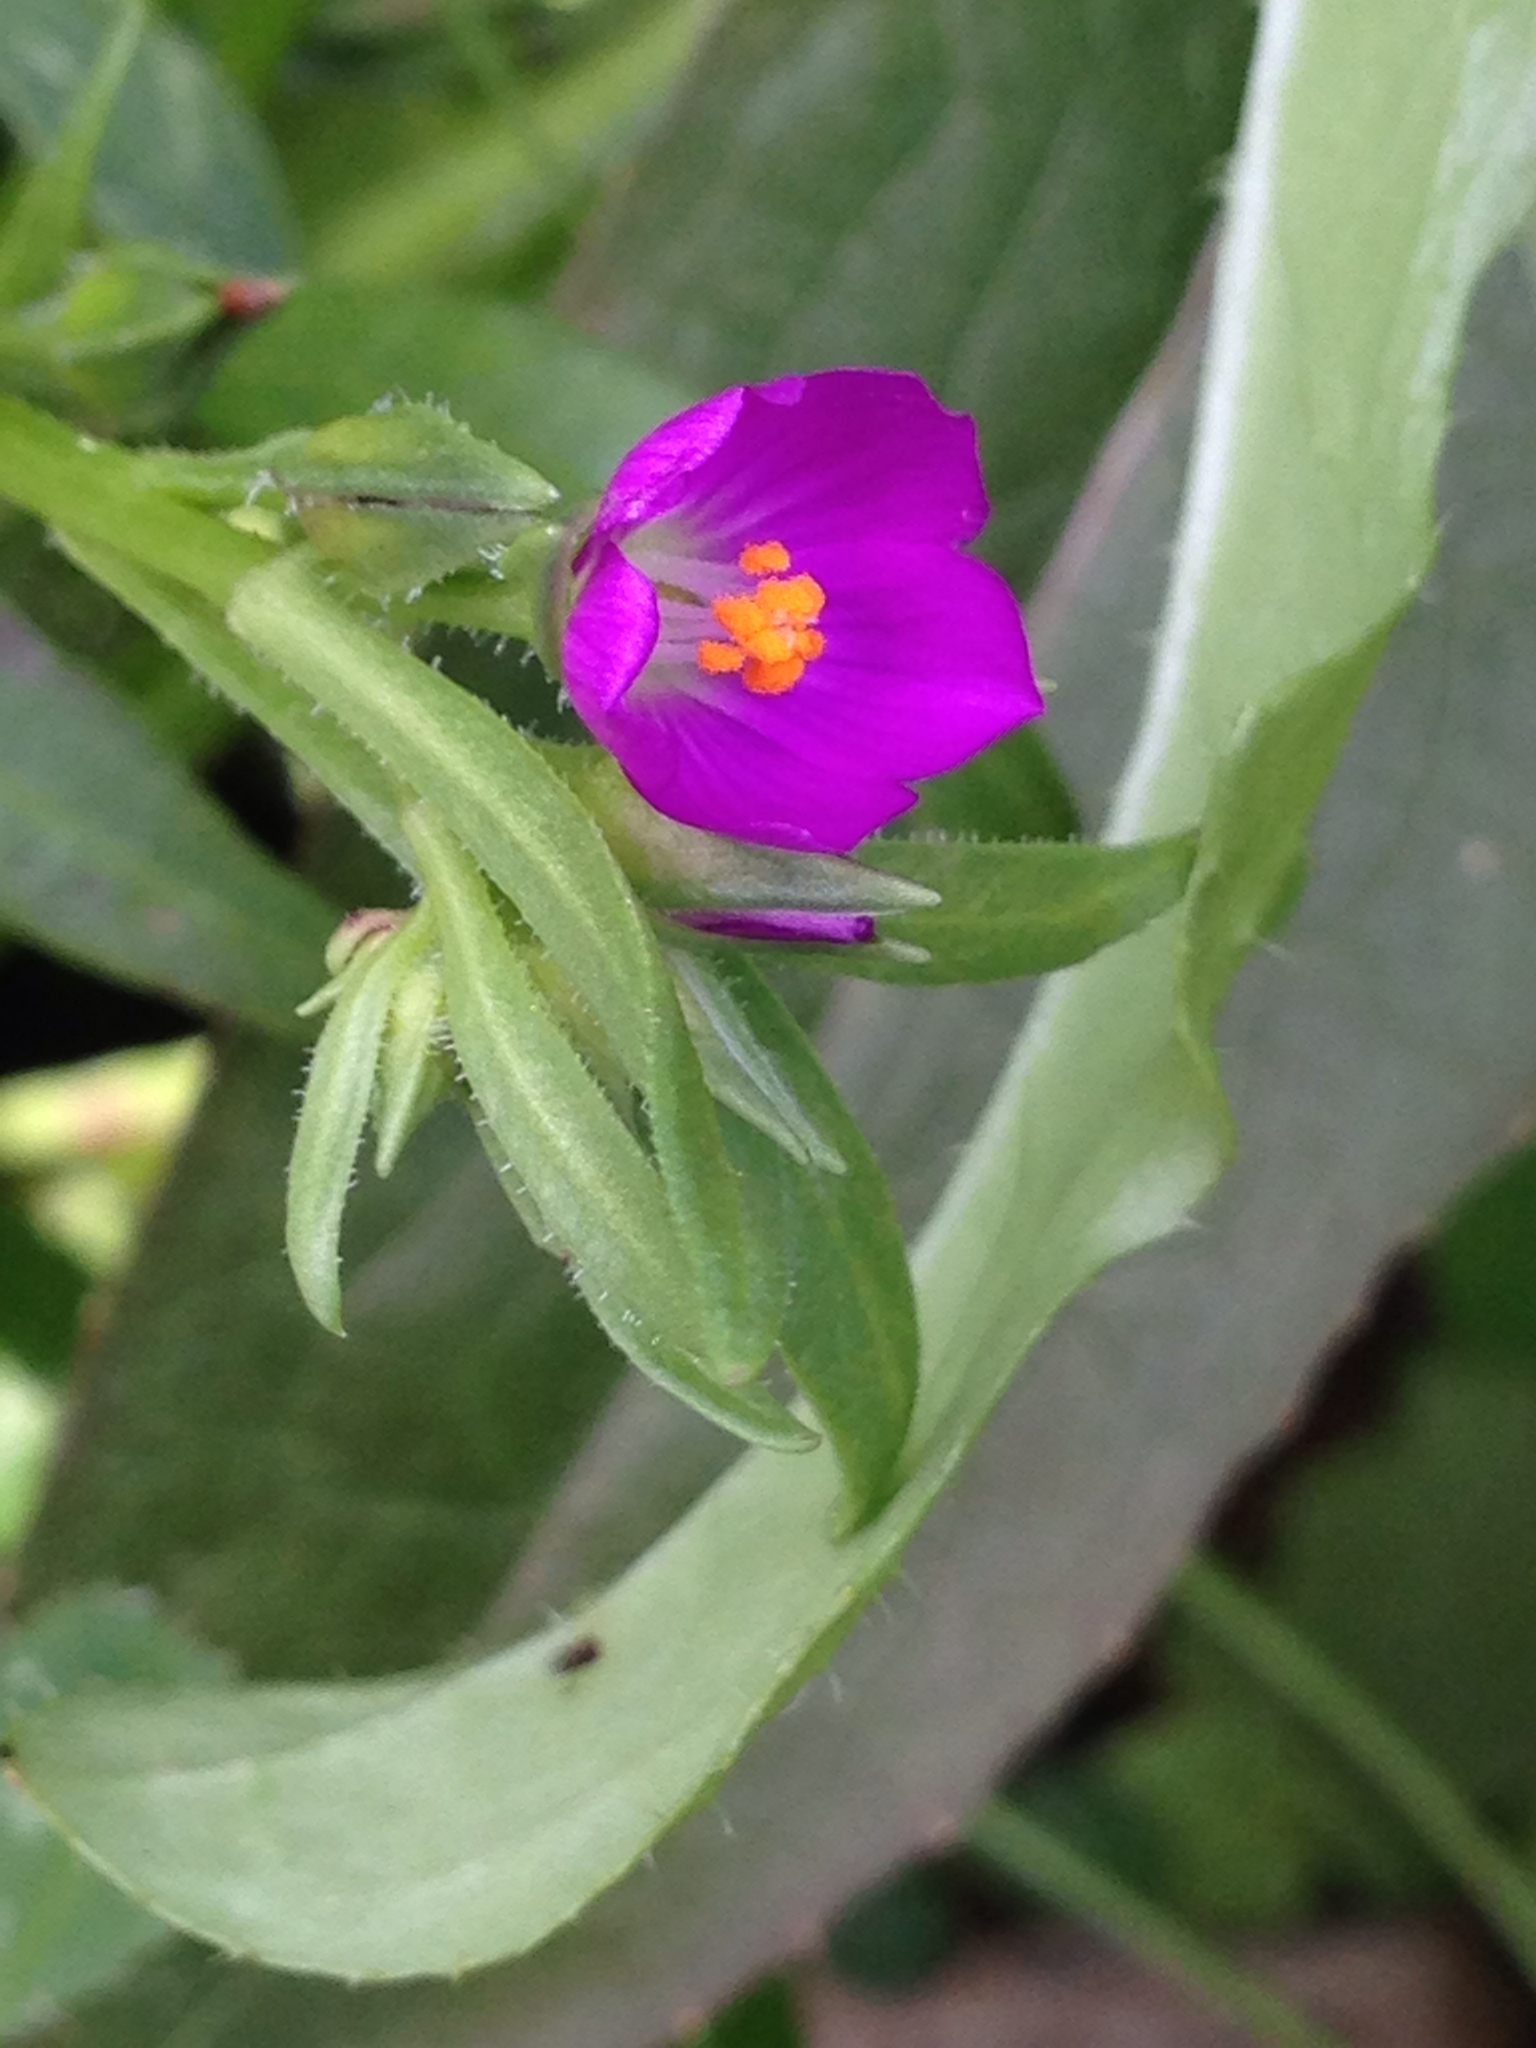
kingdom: Plantae
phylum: Tracheophyta
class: Magnoliopsida
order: Caryophyllales
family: Montiaceae
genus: Calandrinia
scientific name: Calandrinia menziesii
